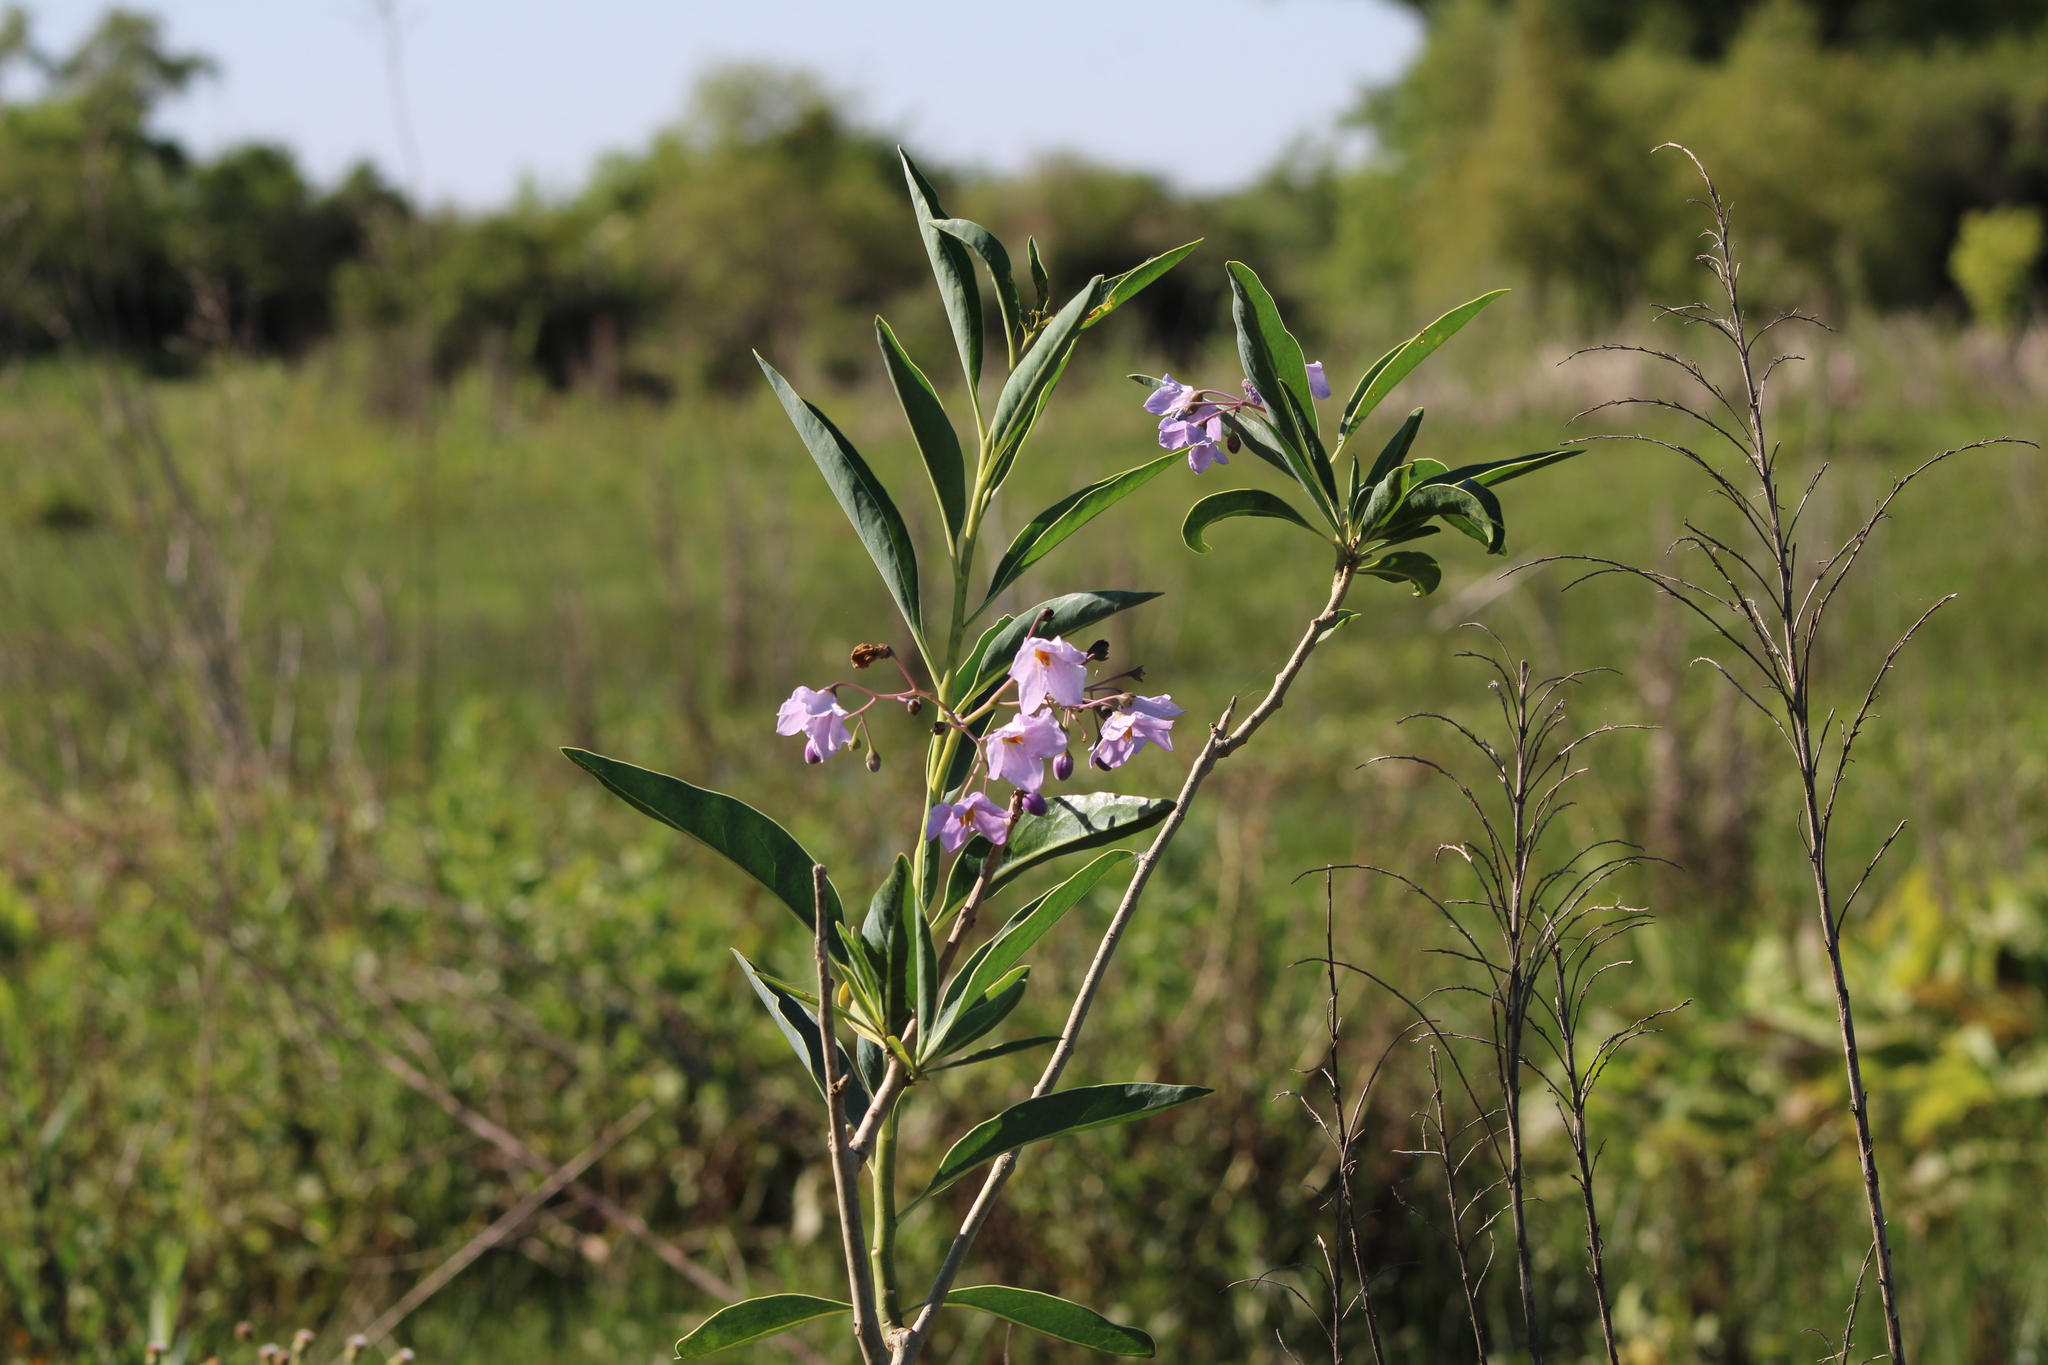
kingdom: Plantae
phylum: Tracheophyta
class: Magnoliopsida
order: Solanales
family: Solanaceae
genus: Solanum
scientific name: Solanum glaucophyllum
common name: Waxyleaf nightshade
